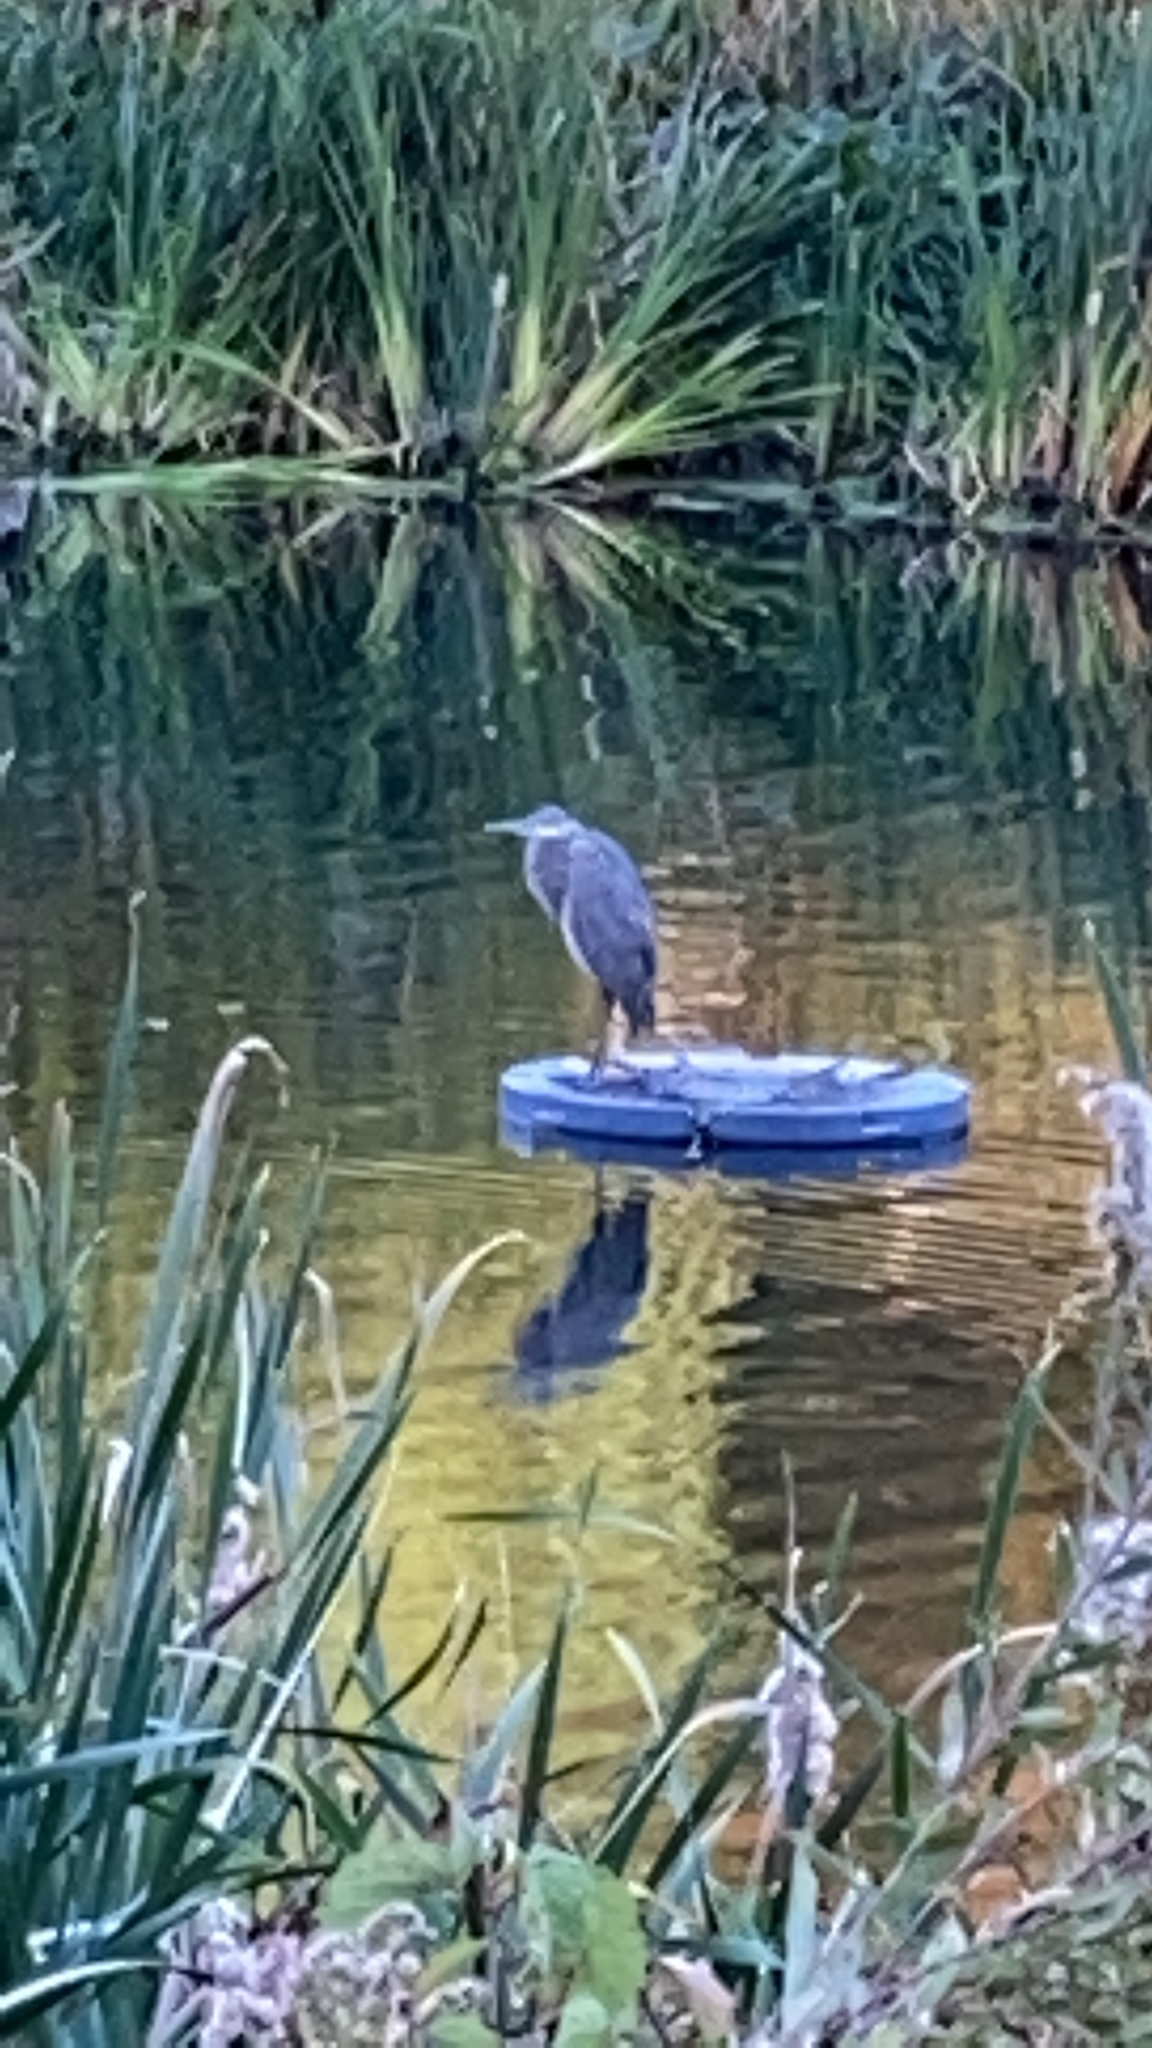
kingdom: Animalia
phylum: Chordata
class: Aves
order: Pelecaniformes
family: Ardeidae
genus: Ardea
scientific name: Ardea herodias
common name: Great blue heron
